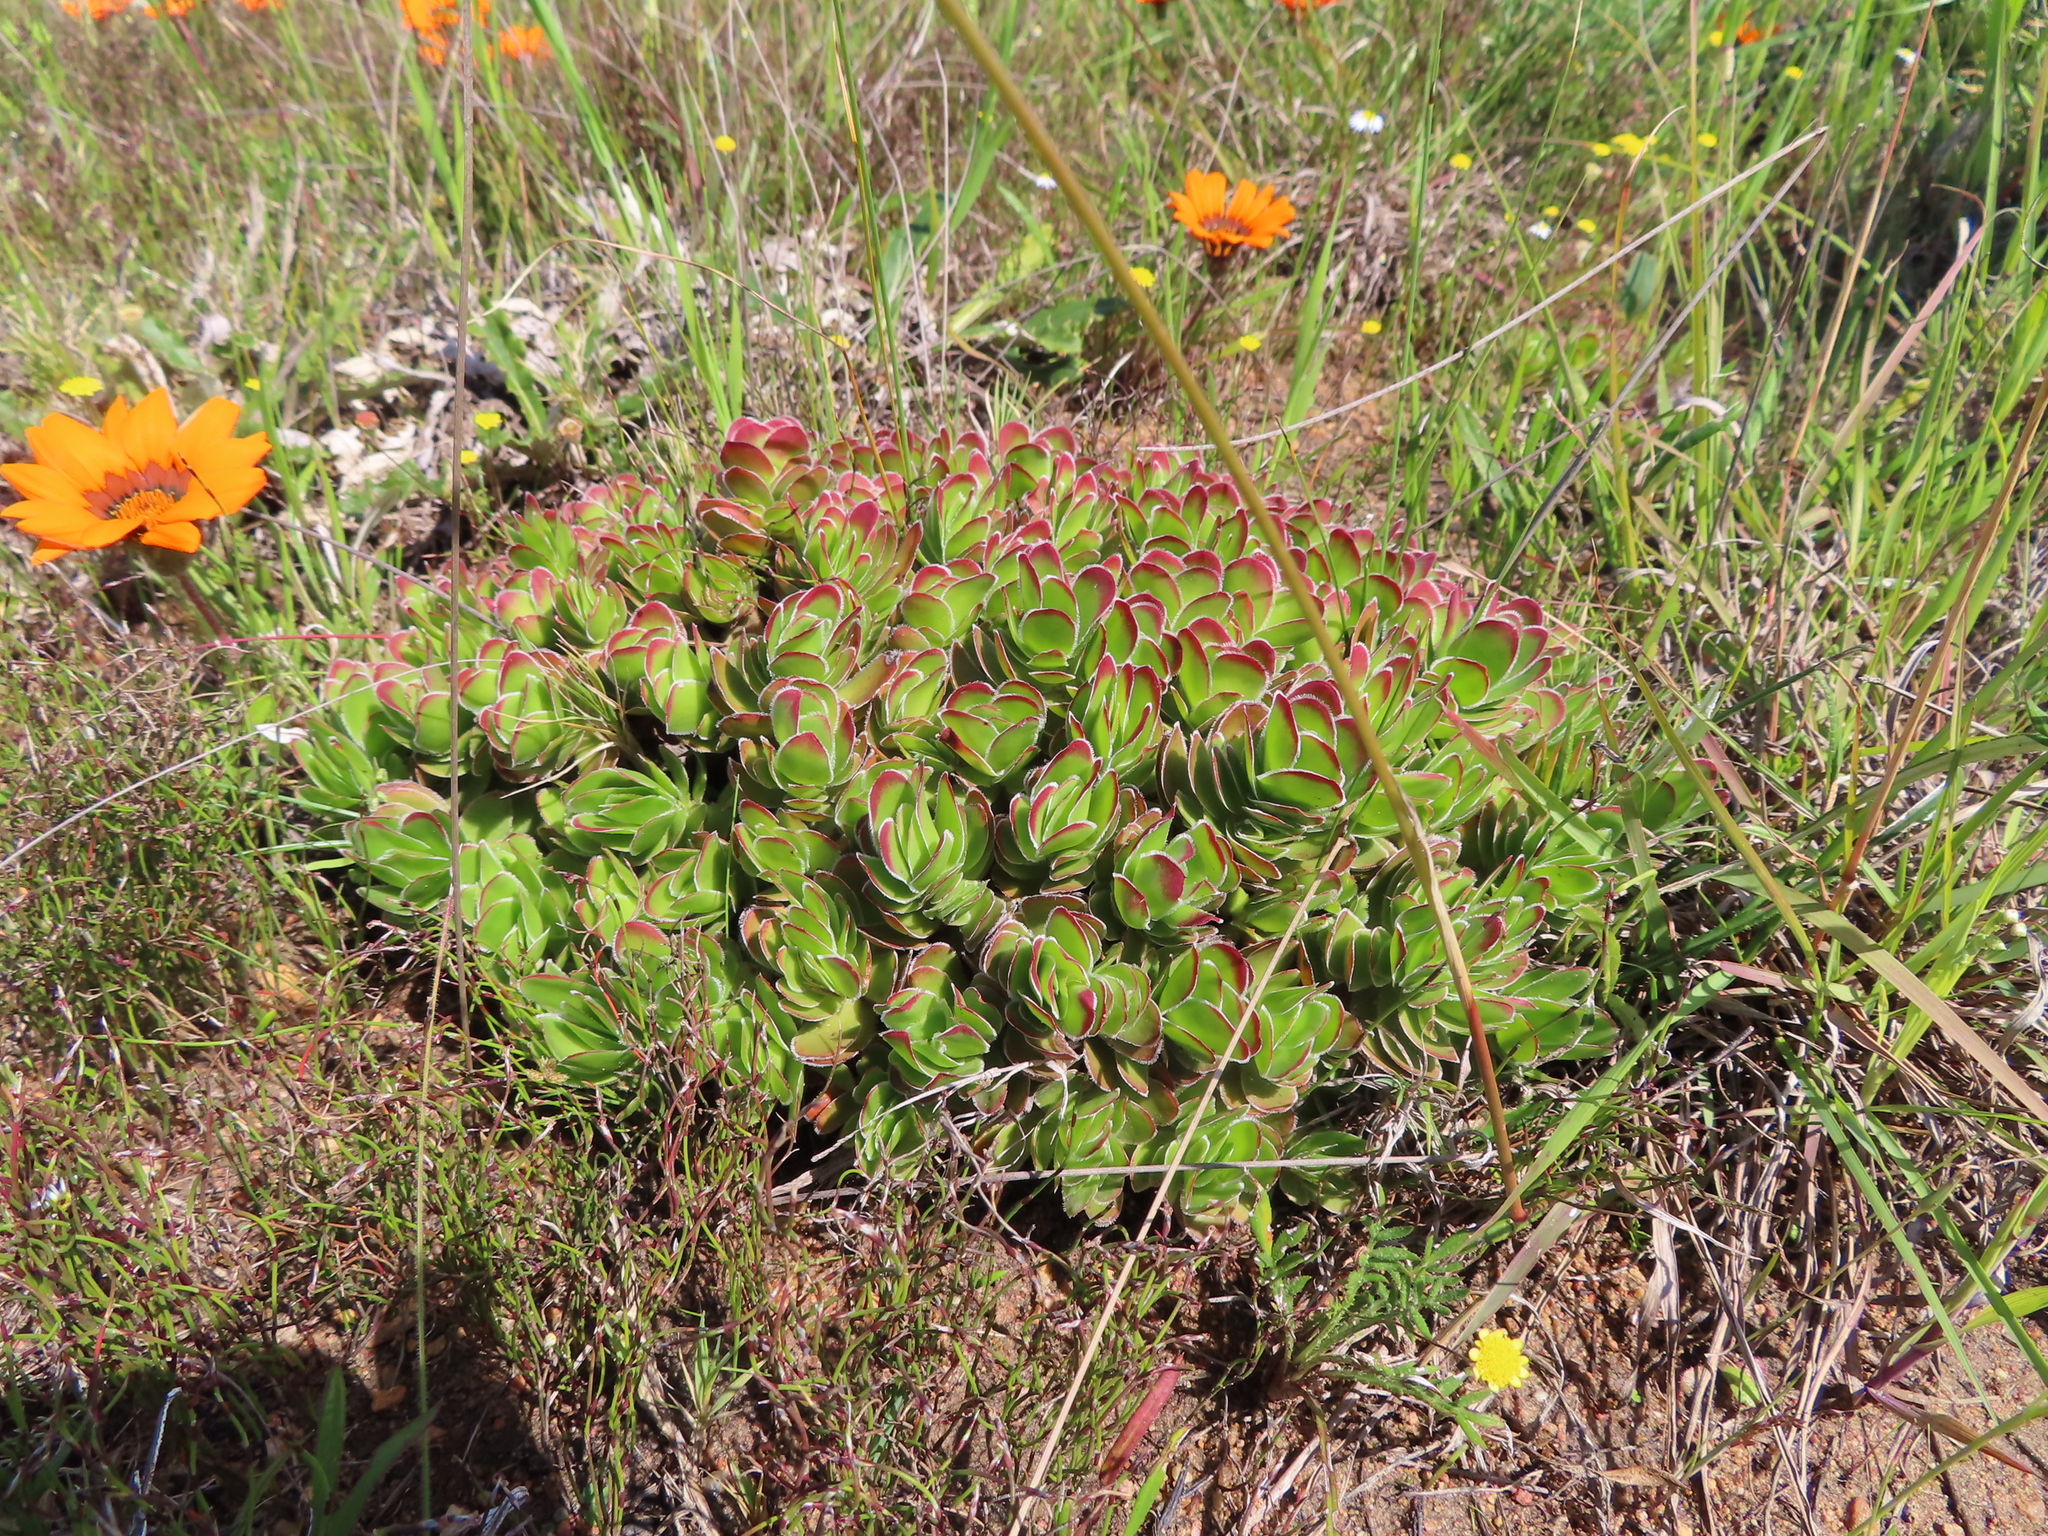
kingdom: Plantae
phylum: Tracheophyta
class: Magnoliopsida
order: Saxifragales
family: Crassulaceae
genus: Crassula
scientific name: Crassula fallax
